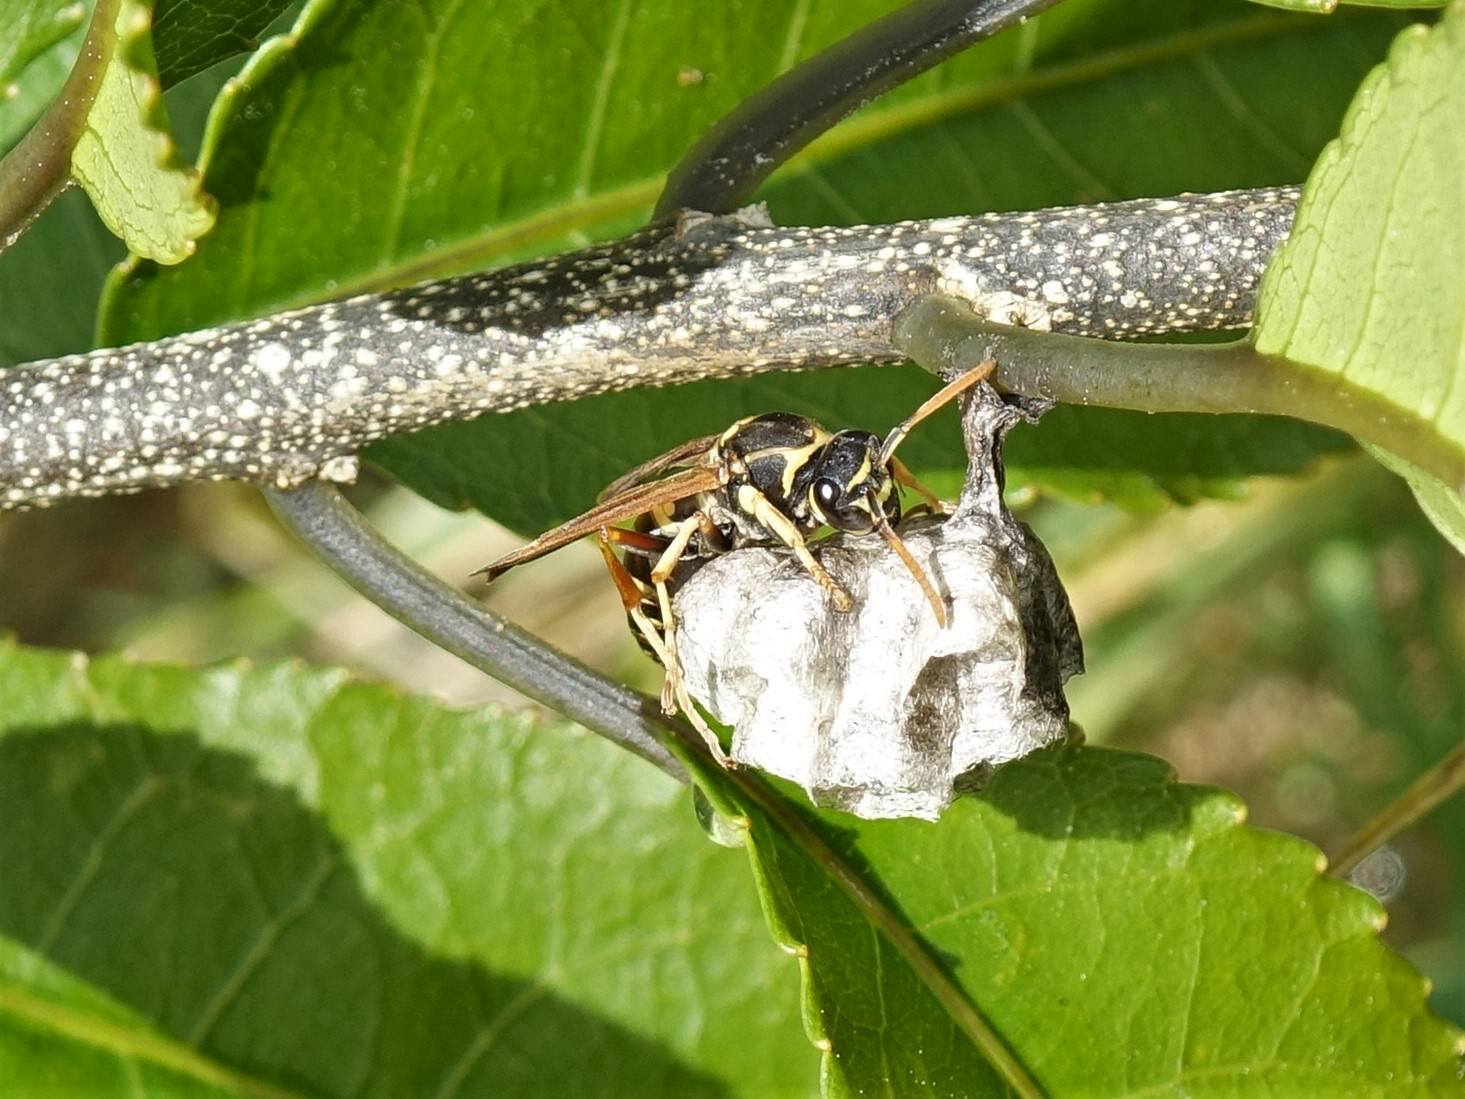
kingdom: Animalia
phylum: Arthropoda
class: Insecta
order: Hymenoptera
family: Eumenidae
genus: Polistes
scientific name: Polistes chinensis
